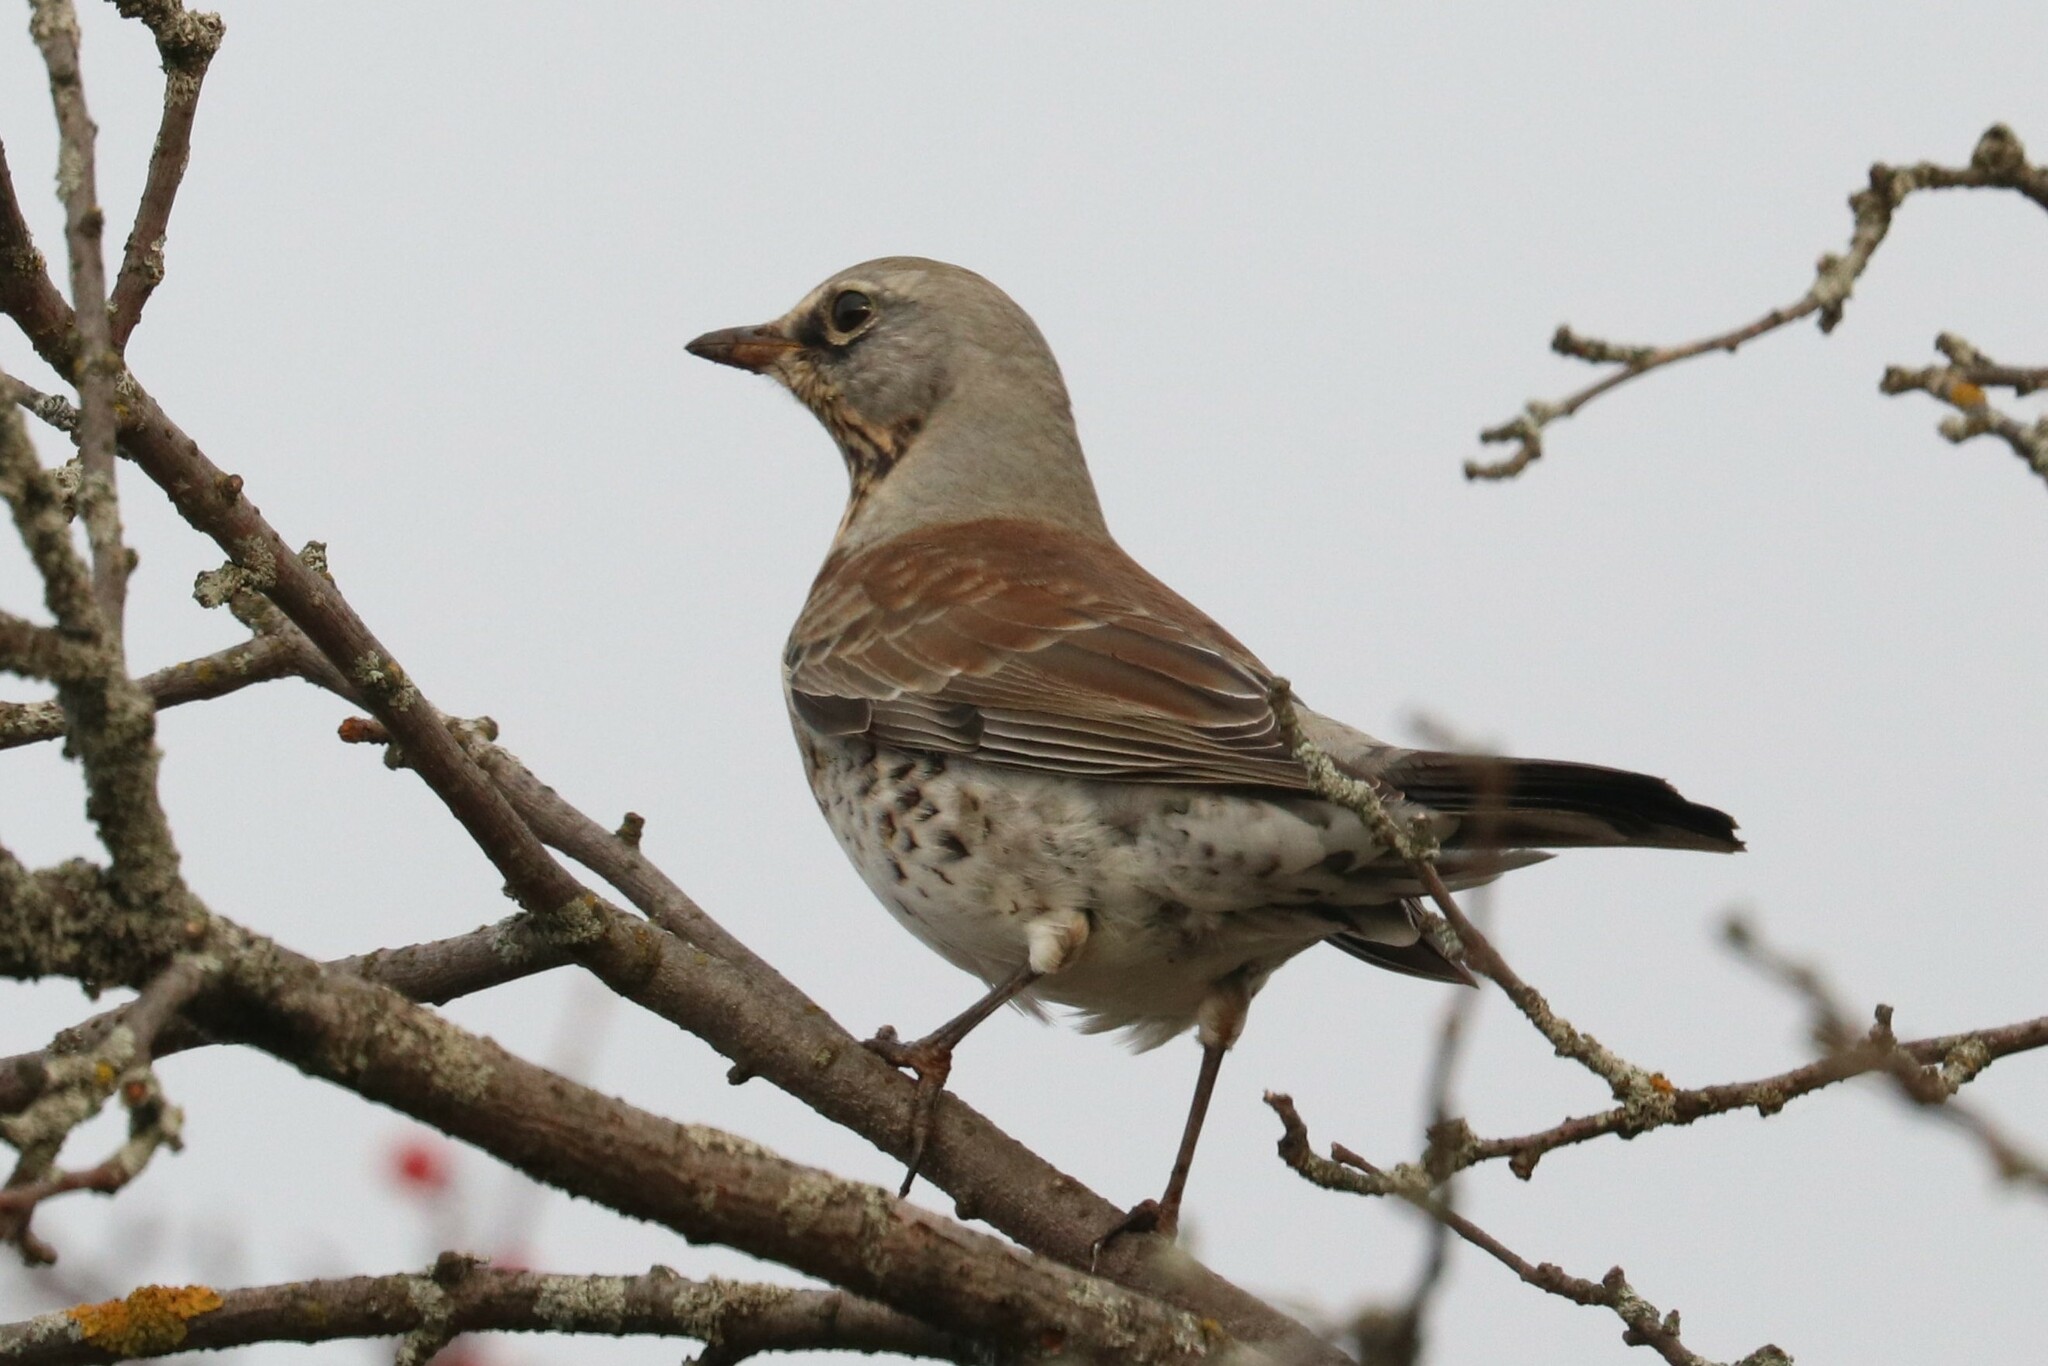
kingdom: Animalia
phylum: Chordata
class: Aves
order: Passeriformes
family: Turdidae
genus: Turdus
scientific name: Turdus pilaris
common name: Fieldfare
